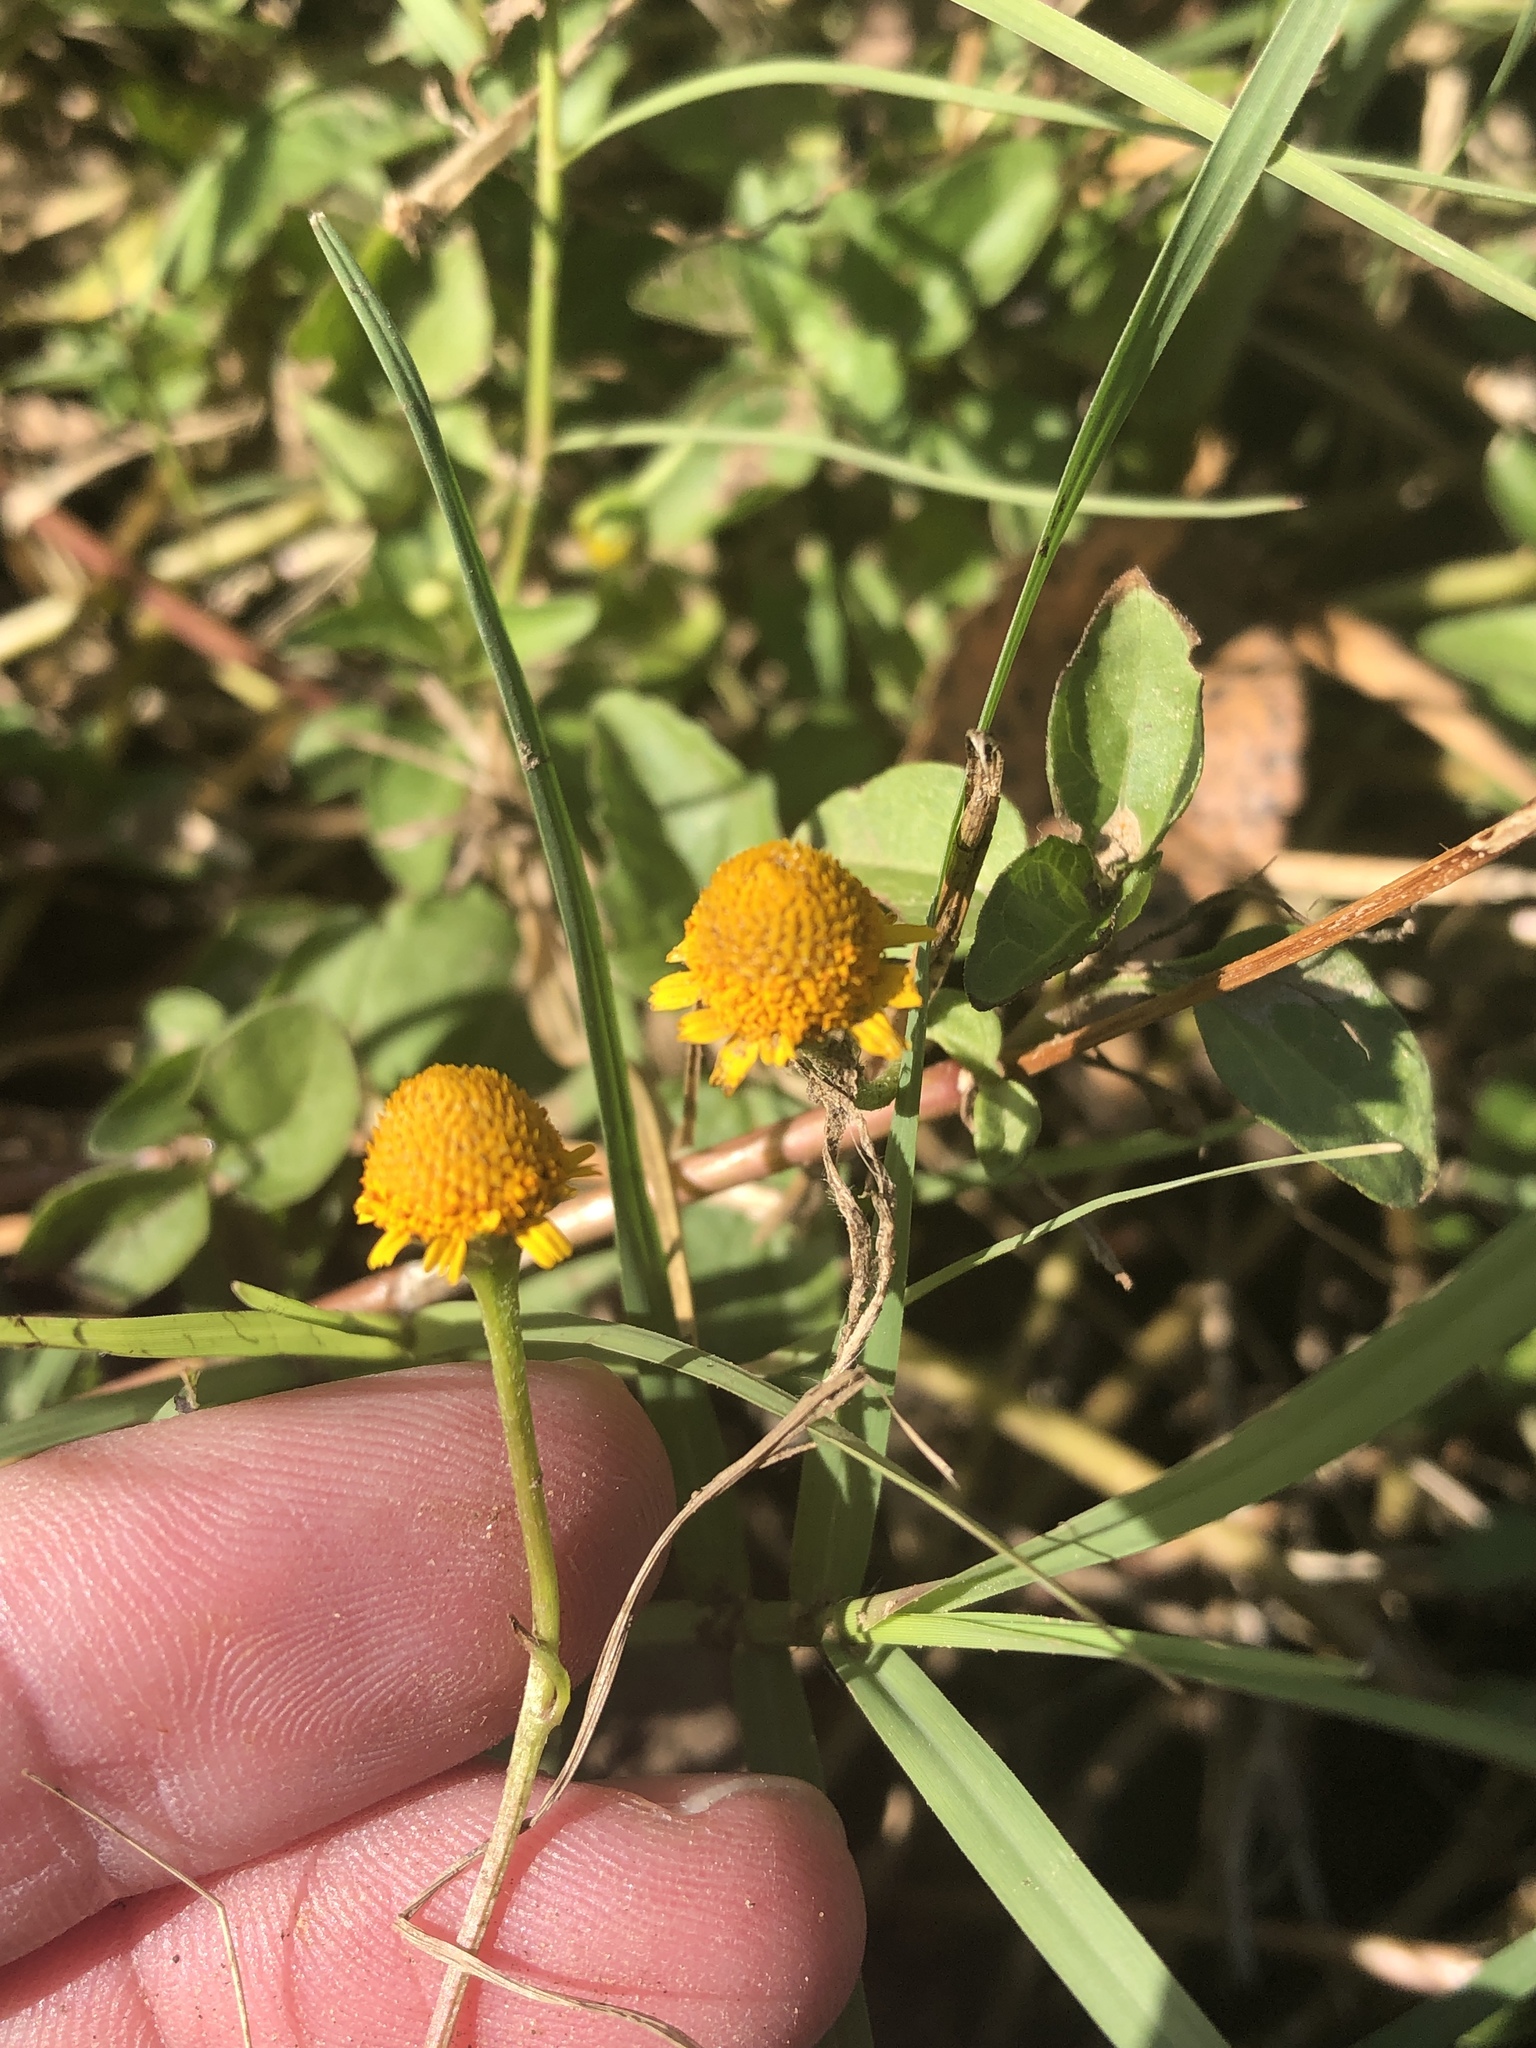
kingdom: Plantae
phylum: Tracheophyta
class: Magnoliopsida
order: Asterales
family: Asteraceae
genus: Acmella
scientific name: Acmella repens
